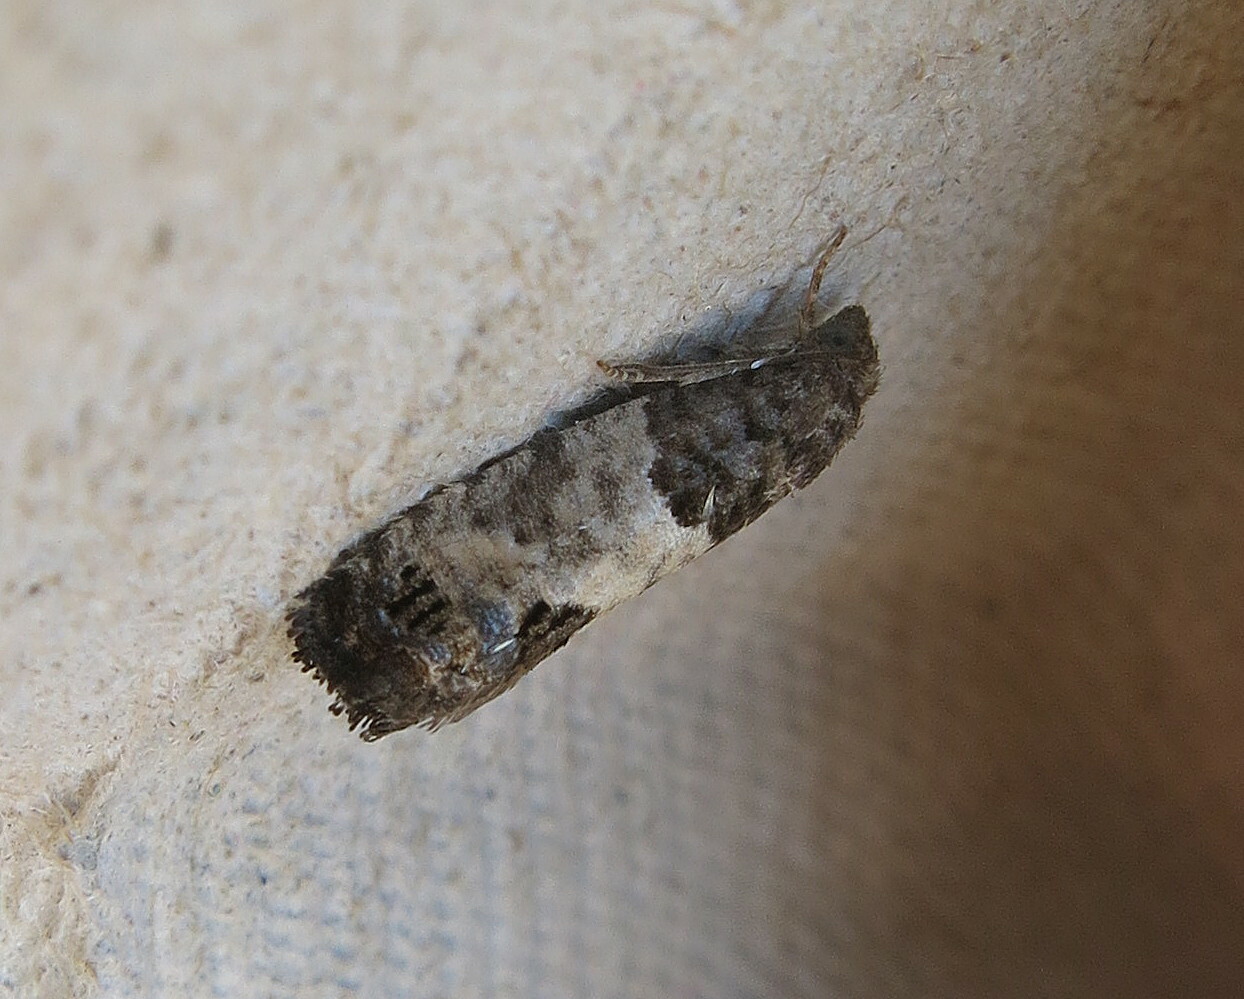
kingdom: Animalia
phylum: Arthropoda
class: Insecta
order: Lepidoptera
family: Tortricidae
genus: Spilonota
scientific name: Spilonota ocellana
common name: Bud moth
